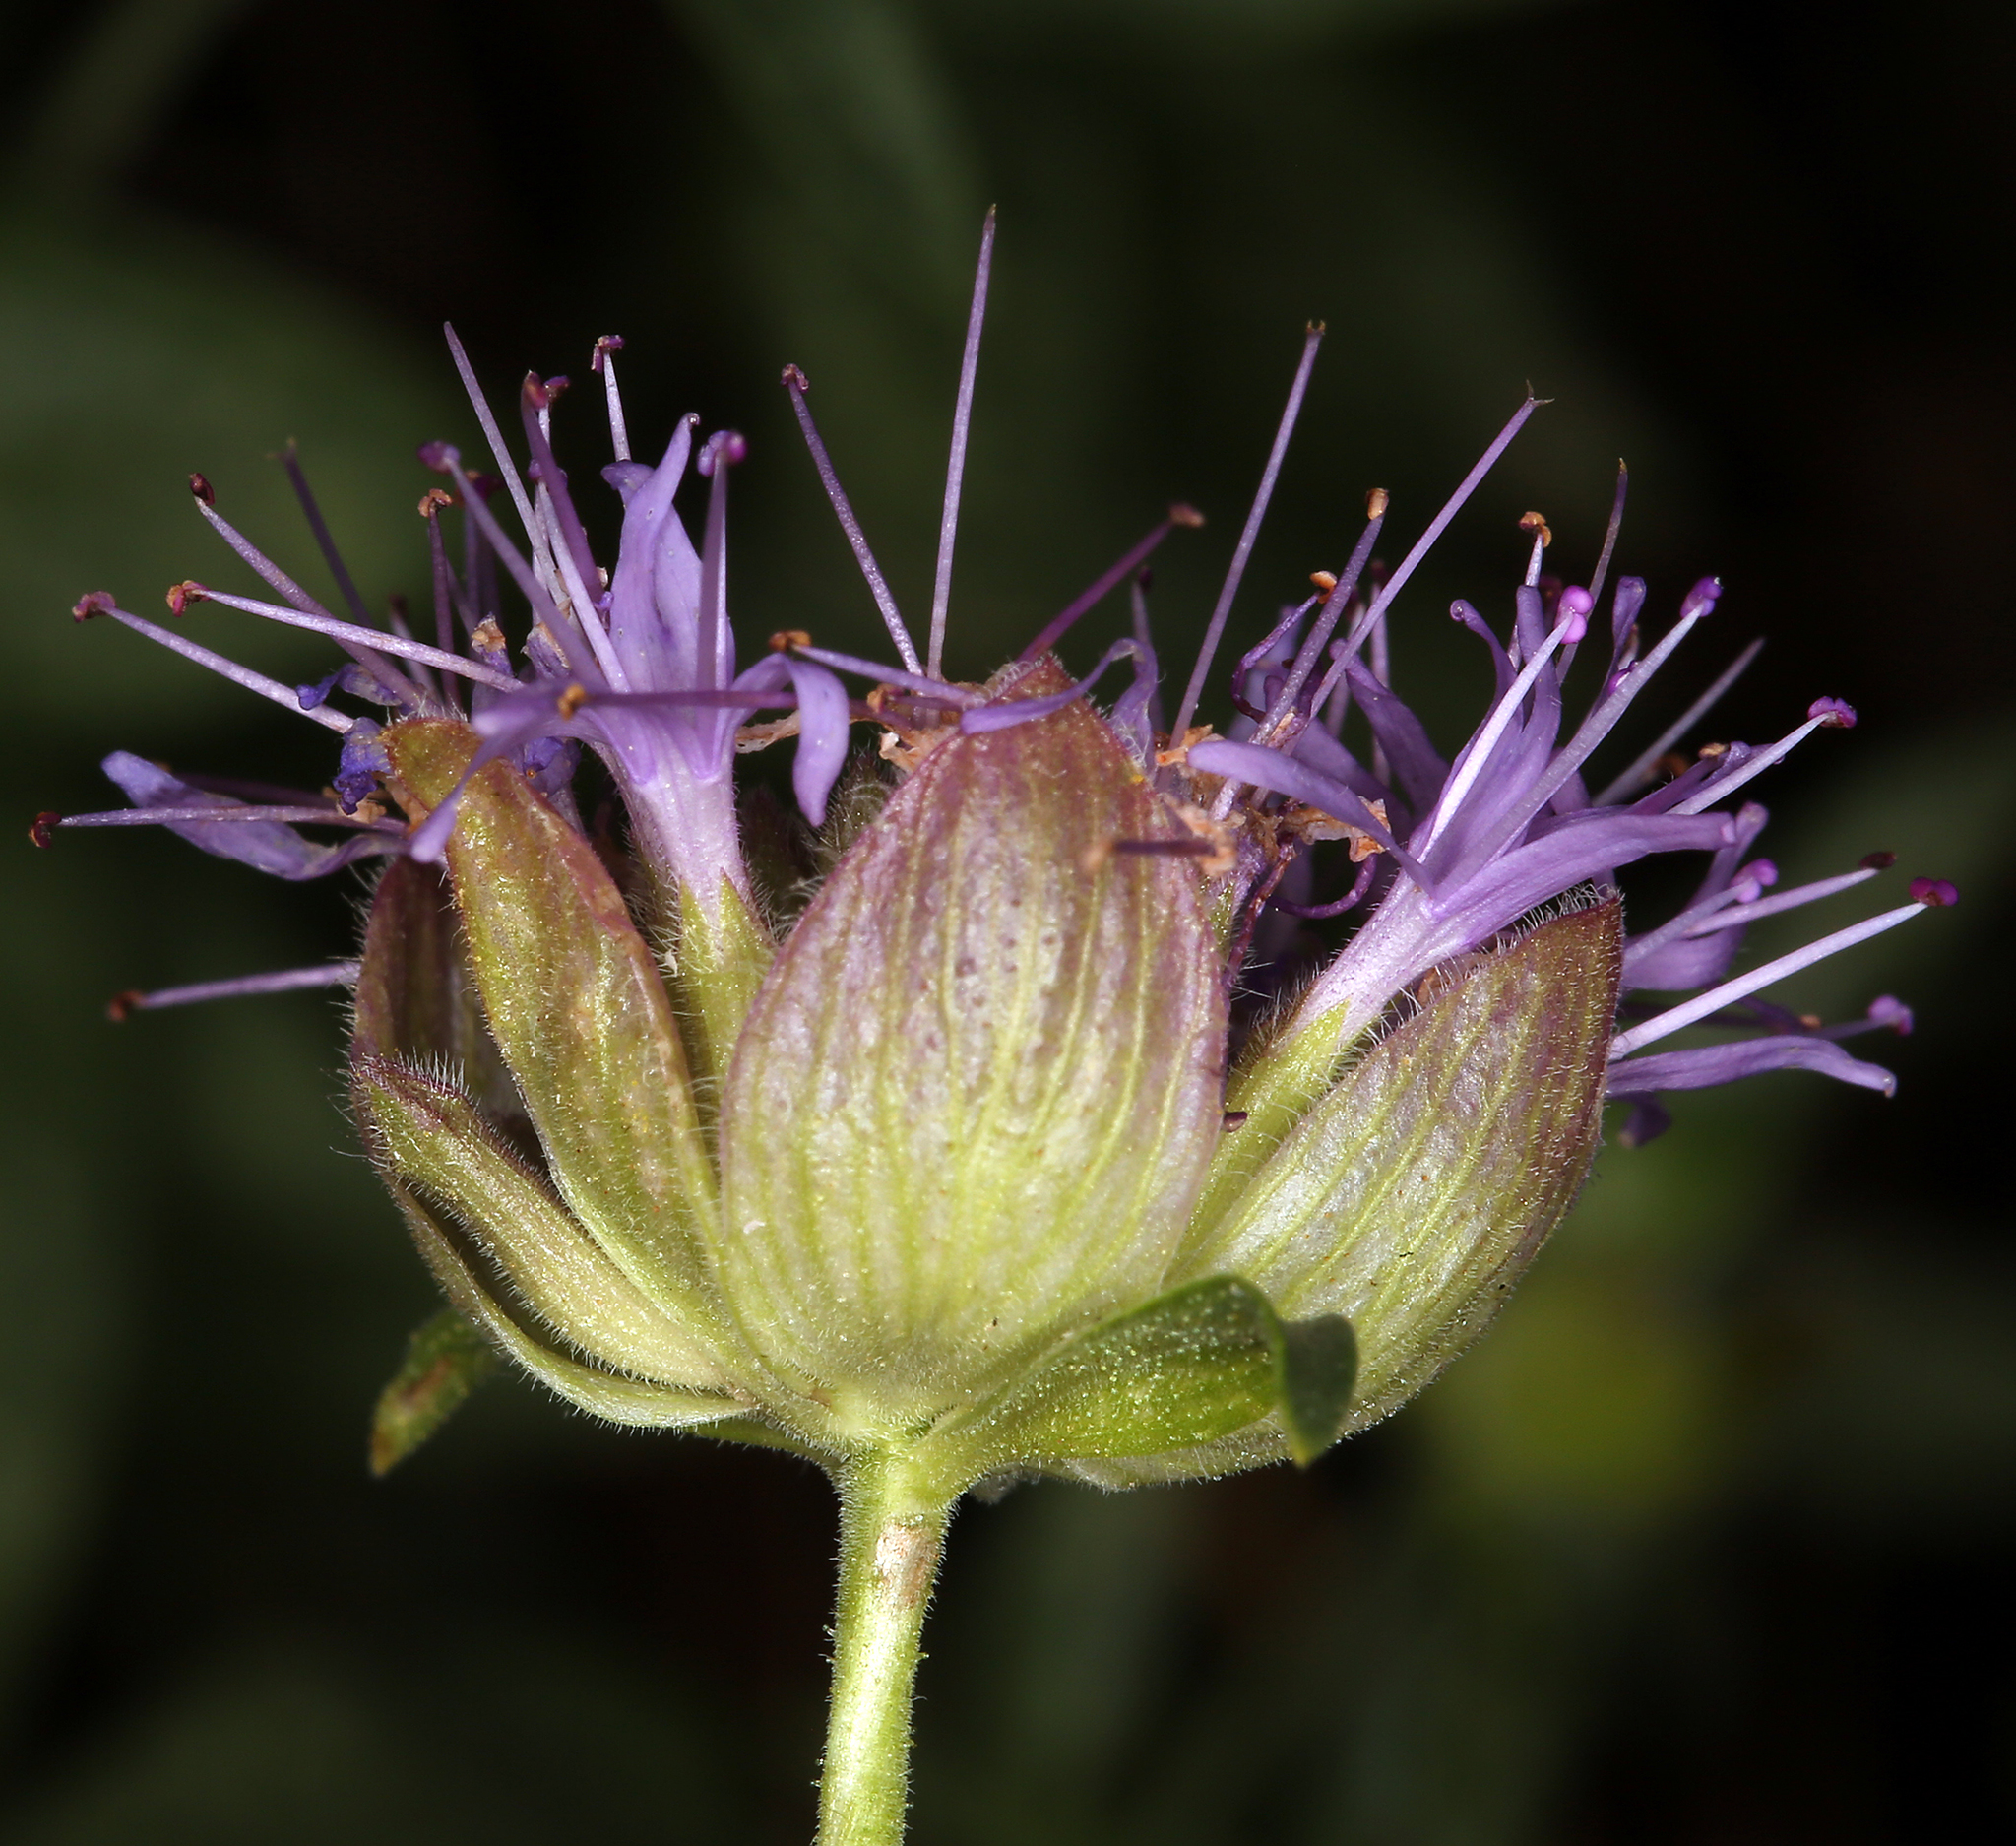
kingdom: Plantae
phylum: Tracheophyta
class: Magnoliopsida
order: Lamiales
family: Lamiaceae
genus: Monardella
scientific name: Monardella odoratissima
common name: Pacific monardella
